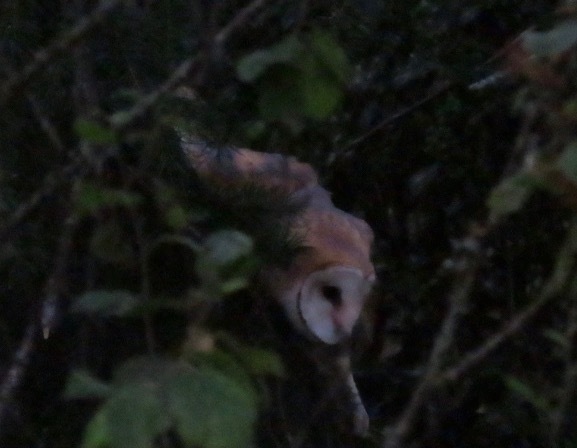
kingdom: Animalia
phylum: Chordata
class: Aves
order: Strigiformes
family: Tytonidae
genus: Tyto
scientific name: Tyto alba
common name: Barn owl
